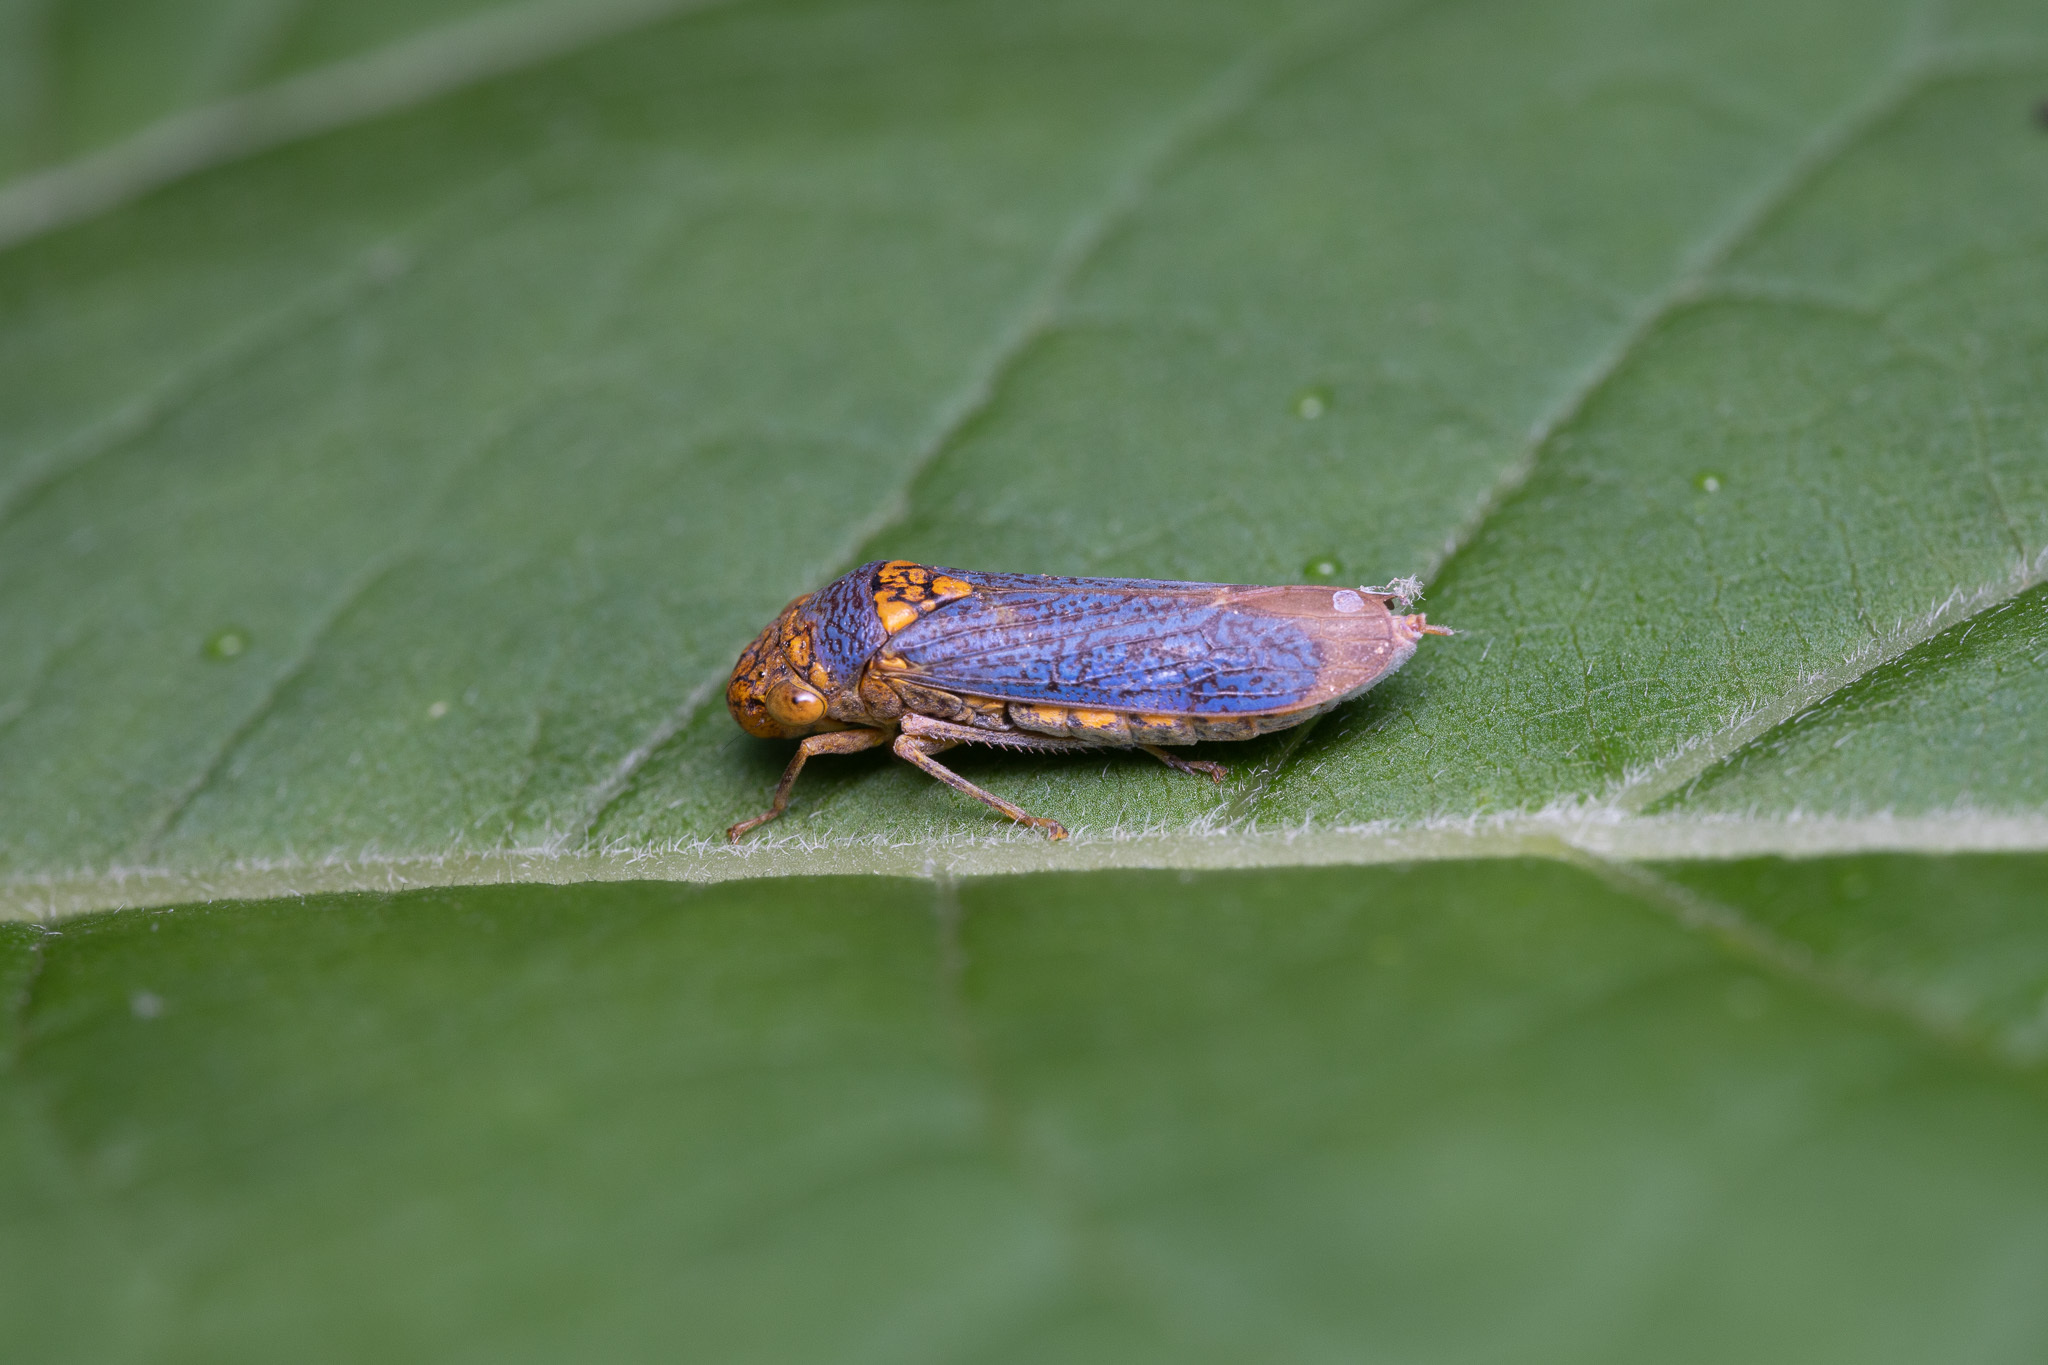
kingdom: Animalia
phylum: Arthropoda
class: Insecta
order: Hemiptera
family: Cicadellidae
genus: Oncometopia
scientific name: Oncometopia orbona
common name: Broad-headed sharpshooter
